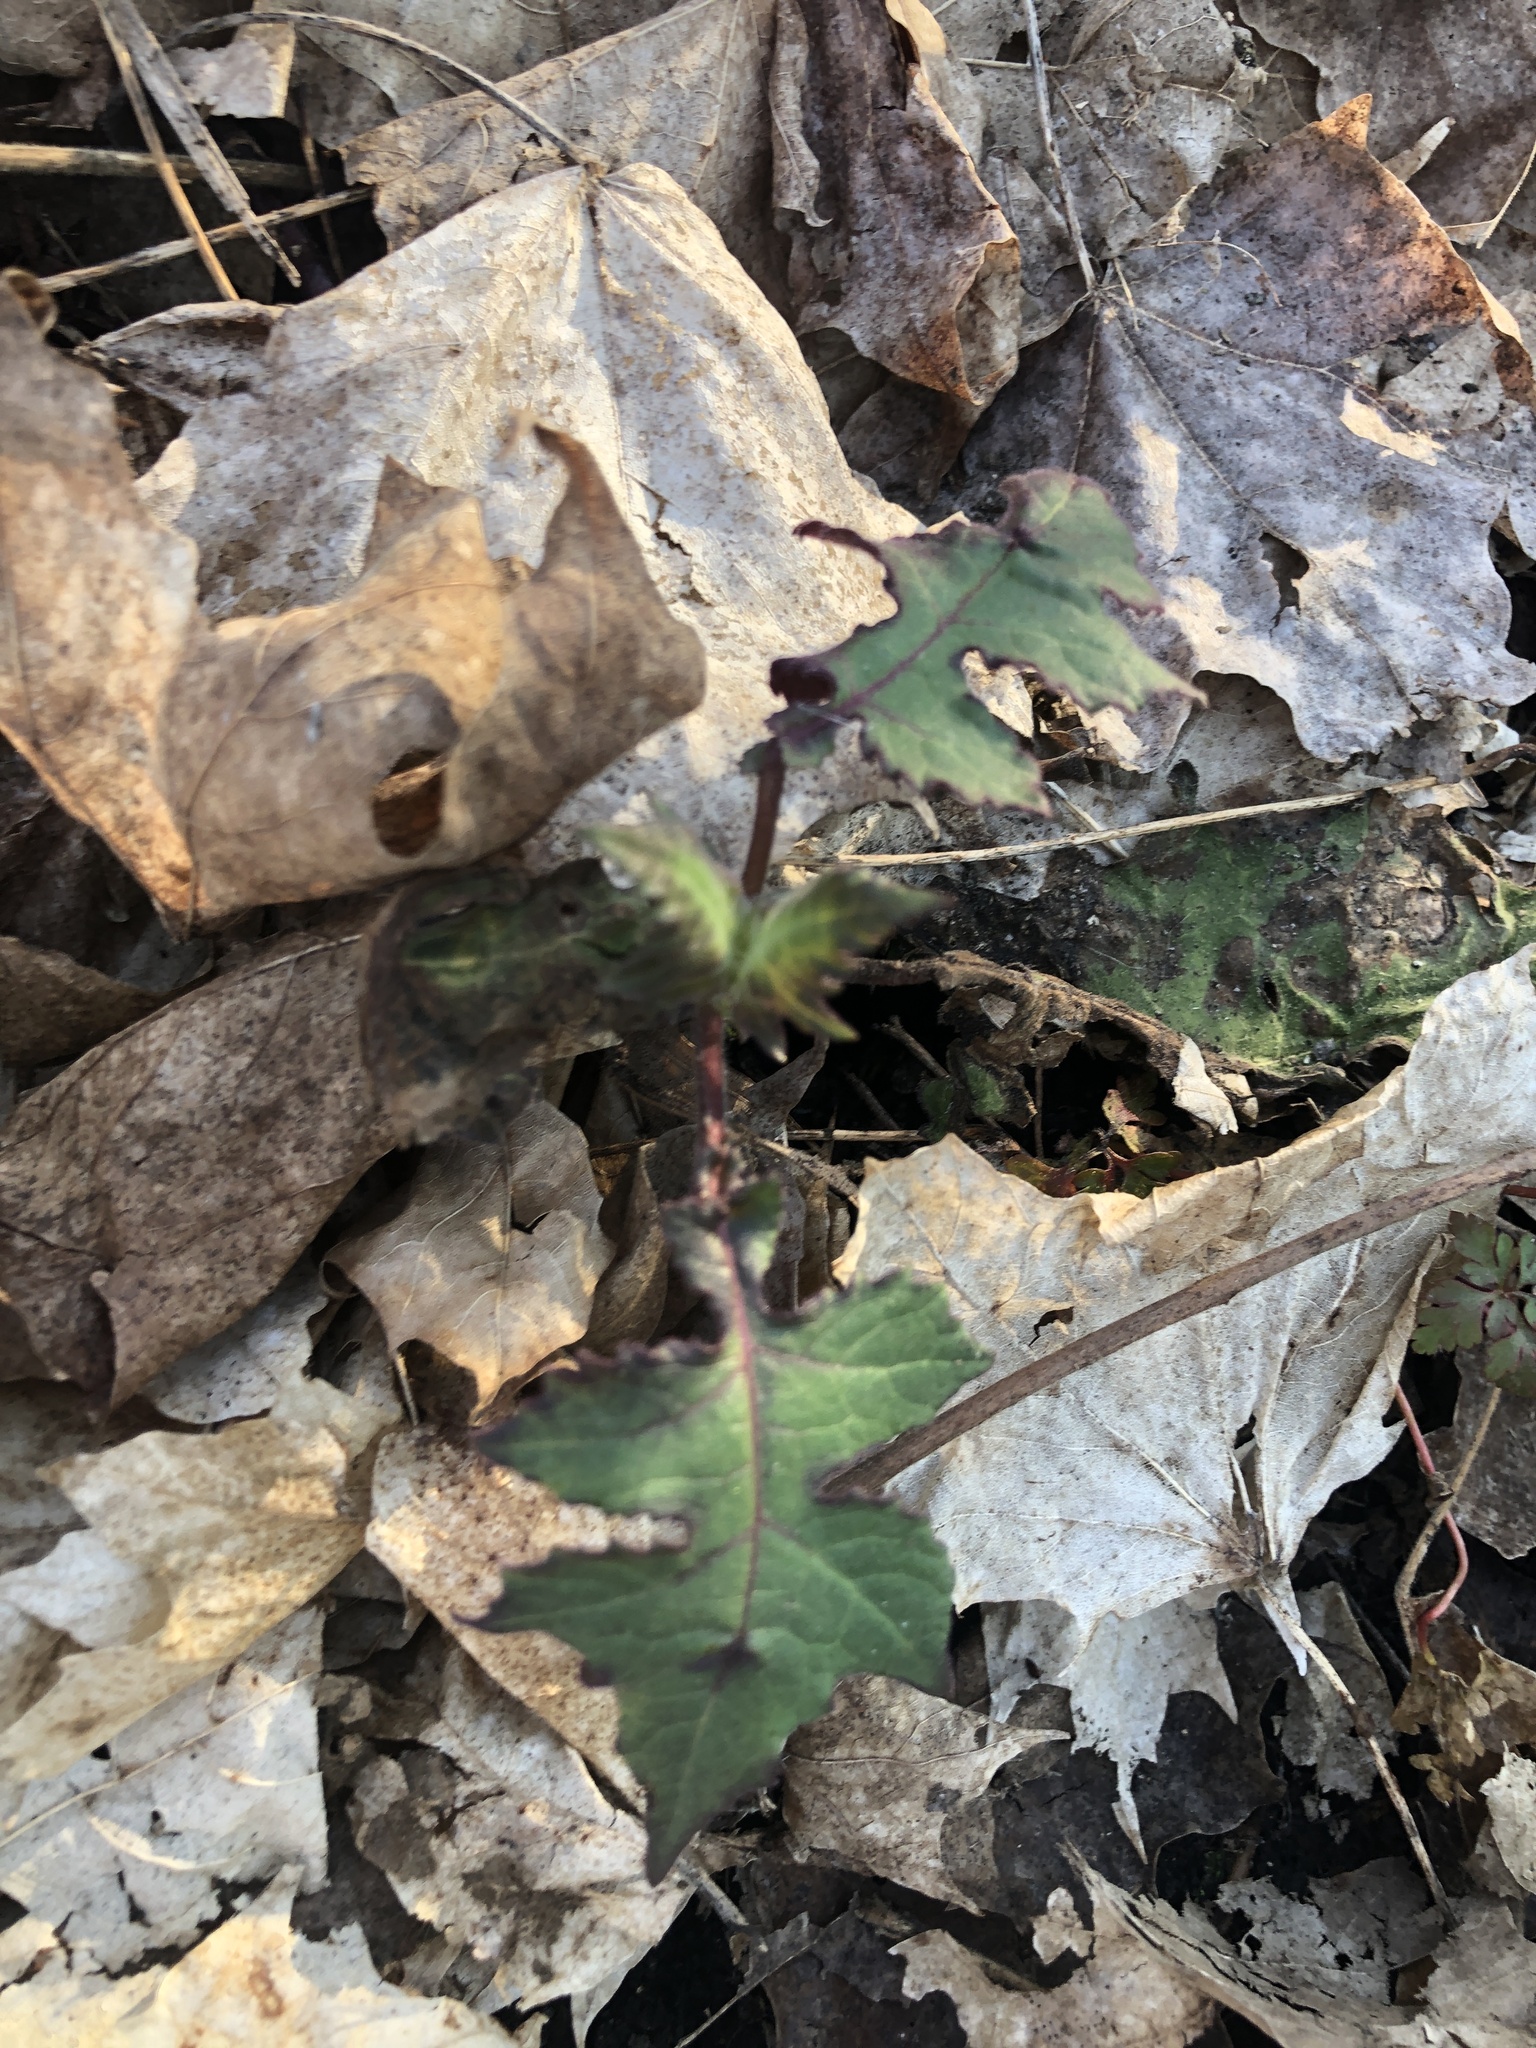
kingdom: Plantae
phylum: Tracheophyta
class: Magnoliopsida
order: Asterales
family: Asteraceae
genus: Polymnia
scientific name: Polymnia canadensis
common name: Pale-flowered leafcup
